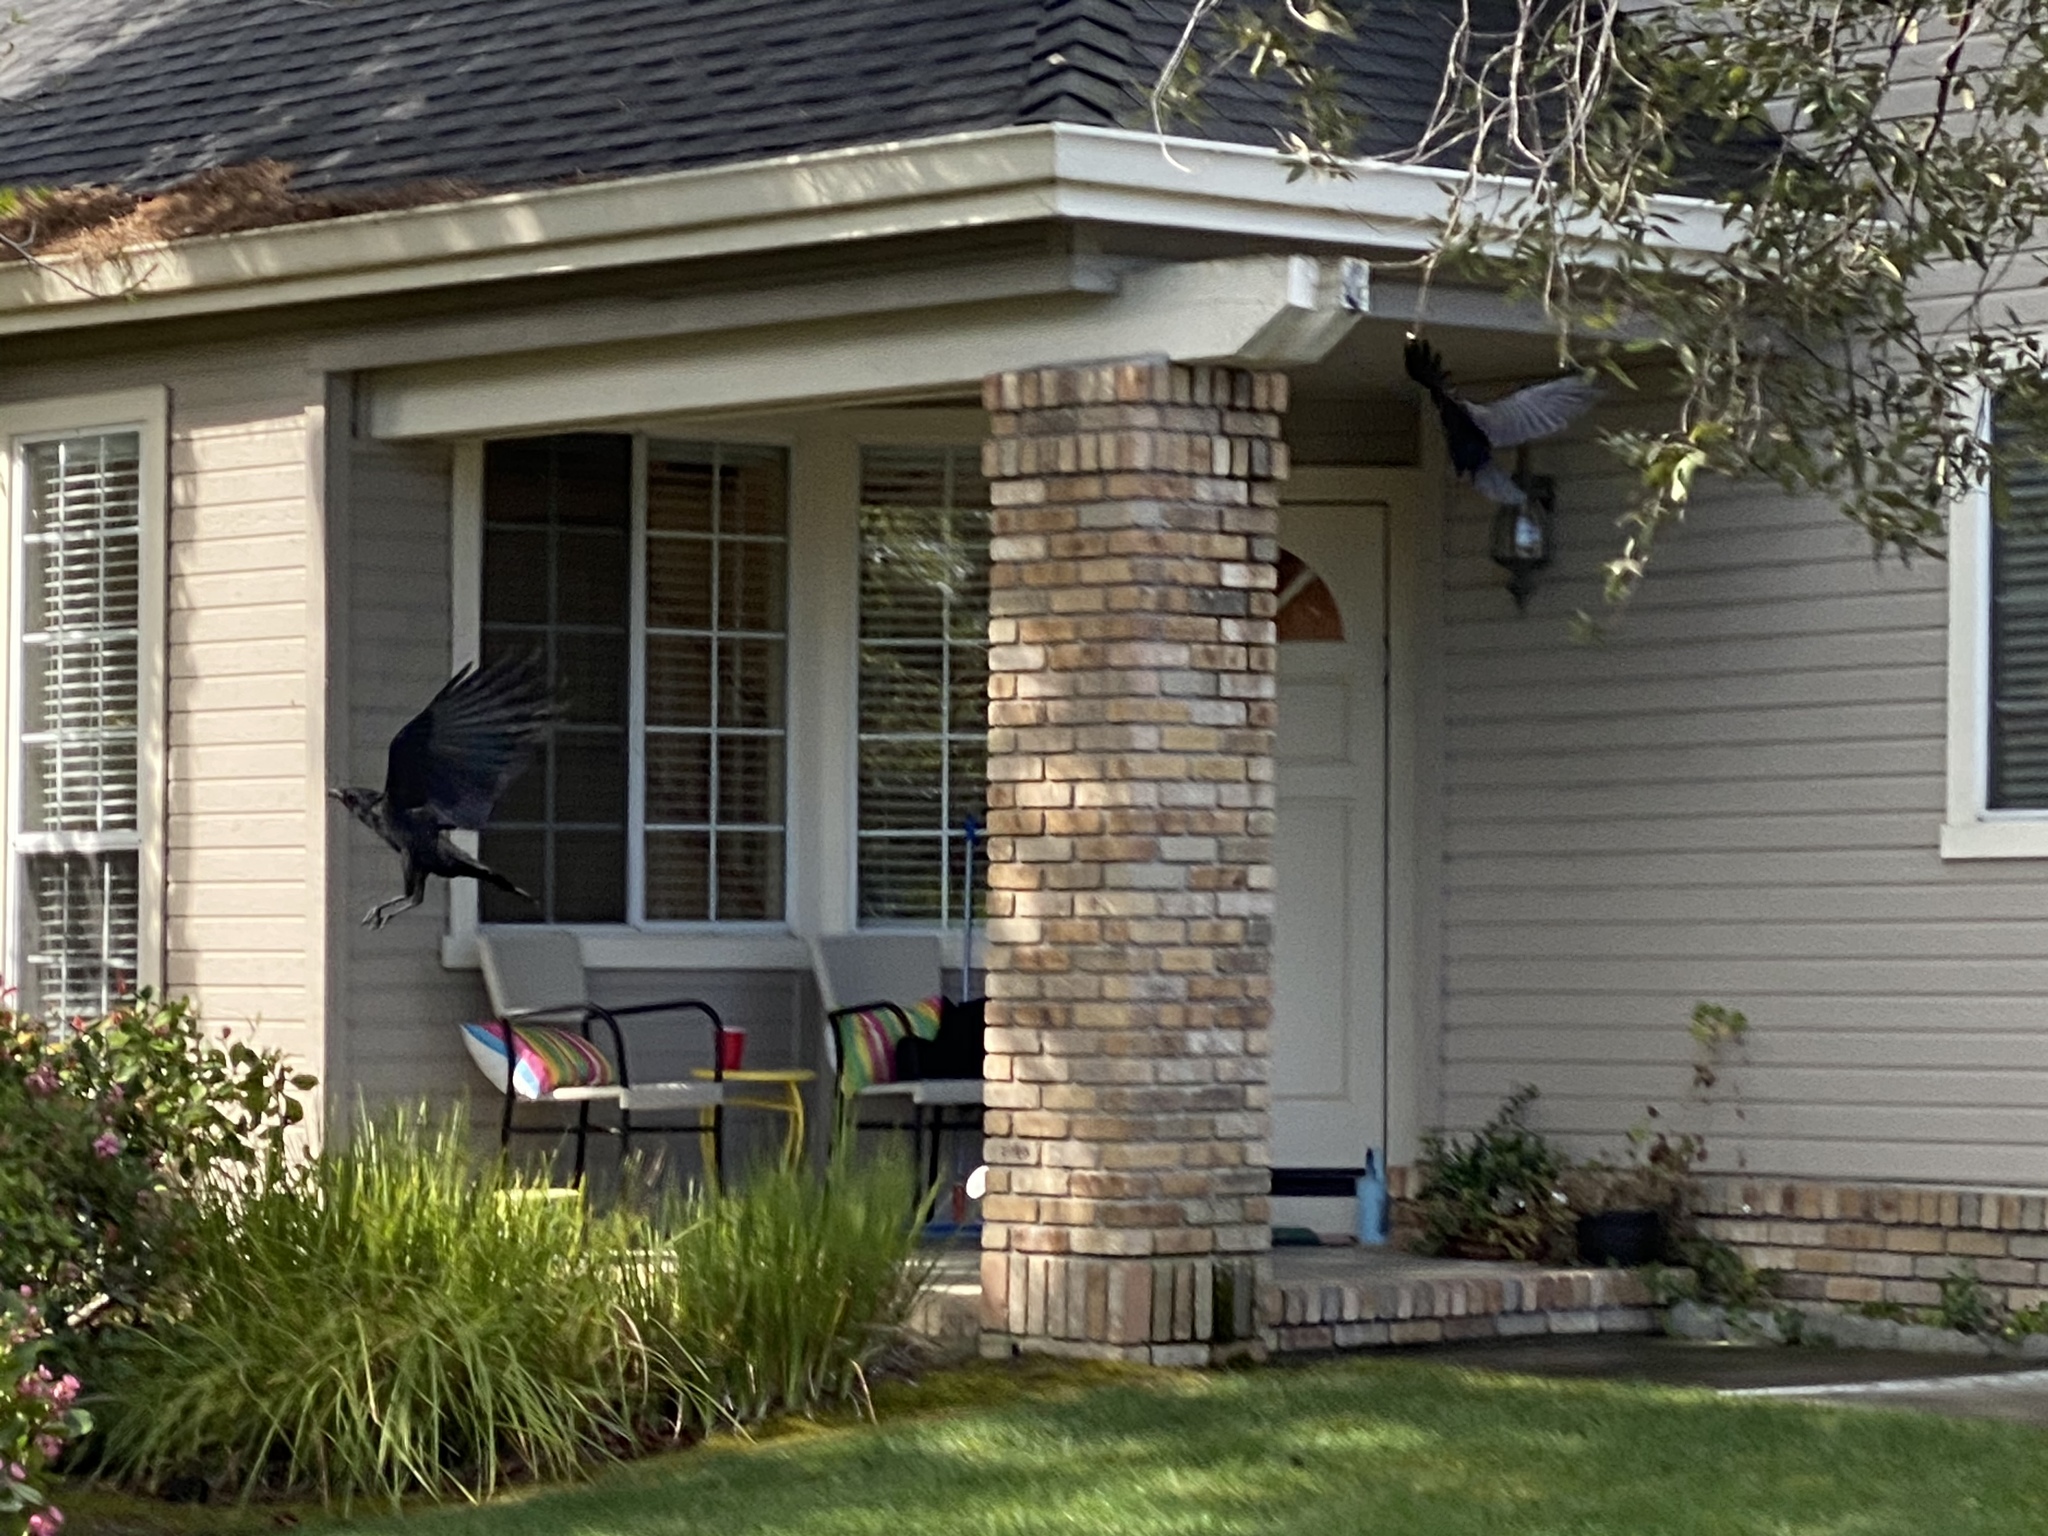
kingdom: Animalia
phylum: Chordata
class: Aves
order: Passeriformes
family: Corvidae
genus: Corvus
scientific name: Corvus brachyrhynchos
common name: American crow
